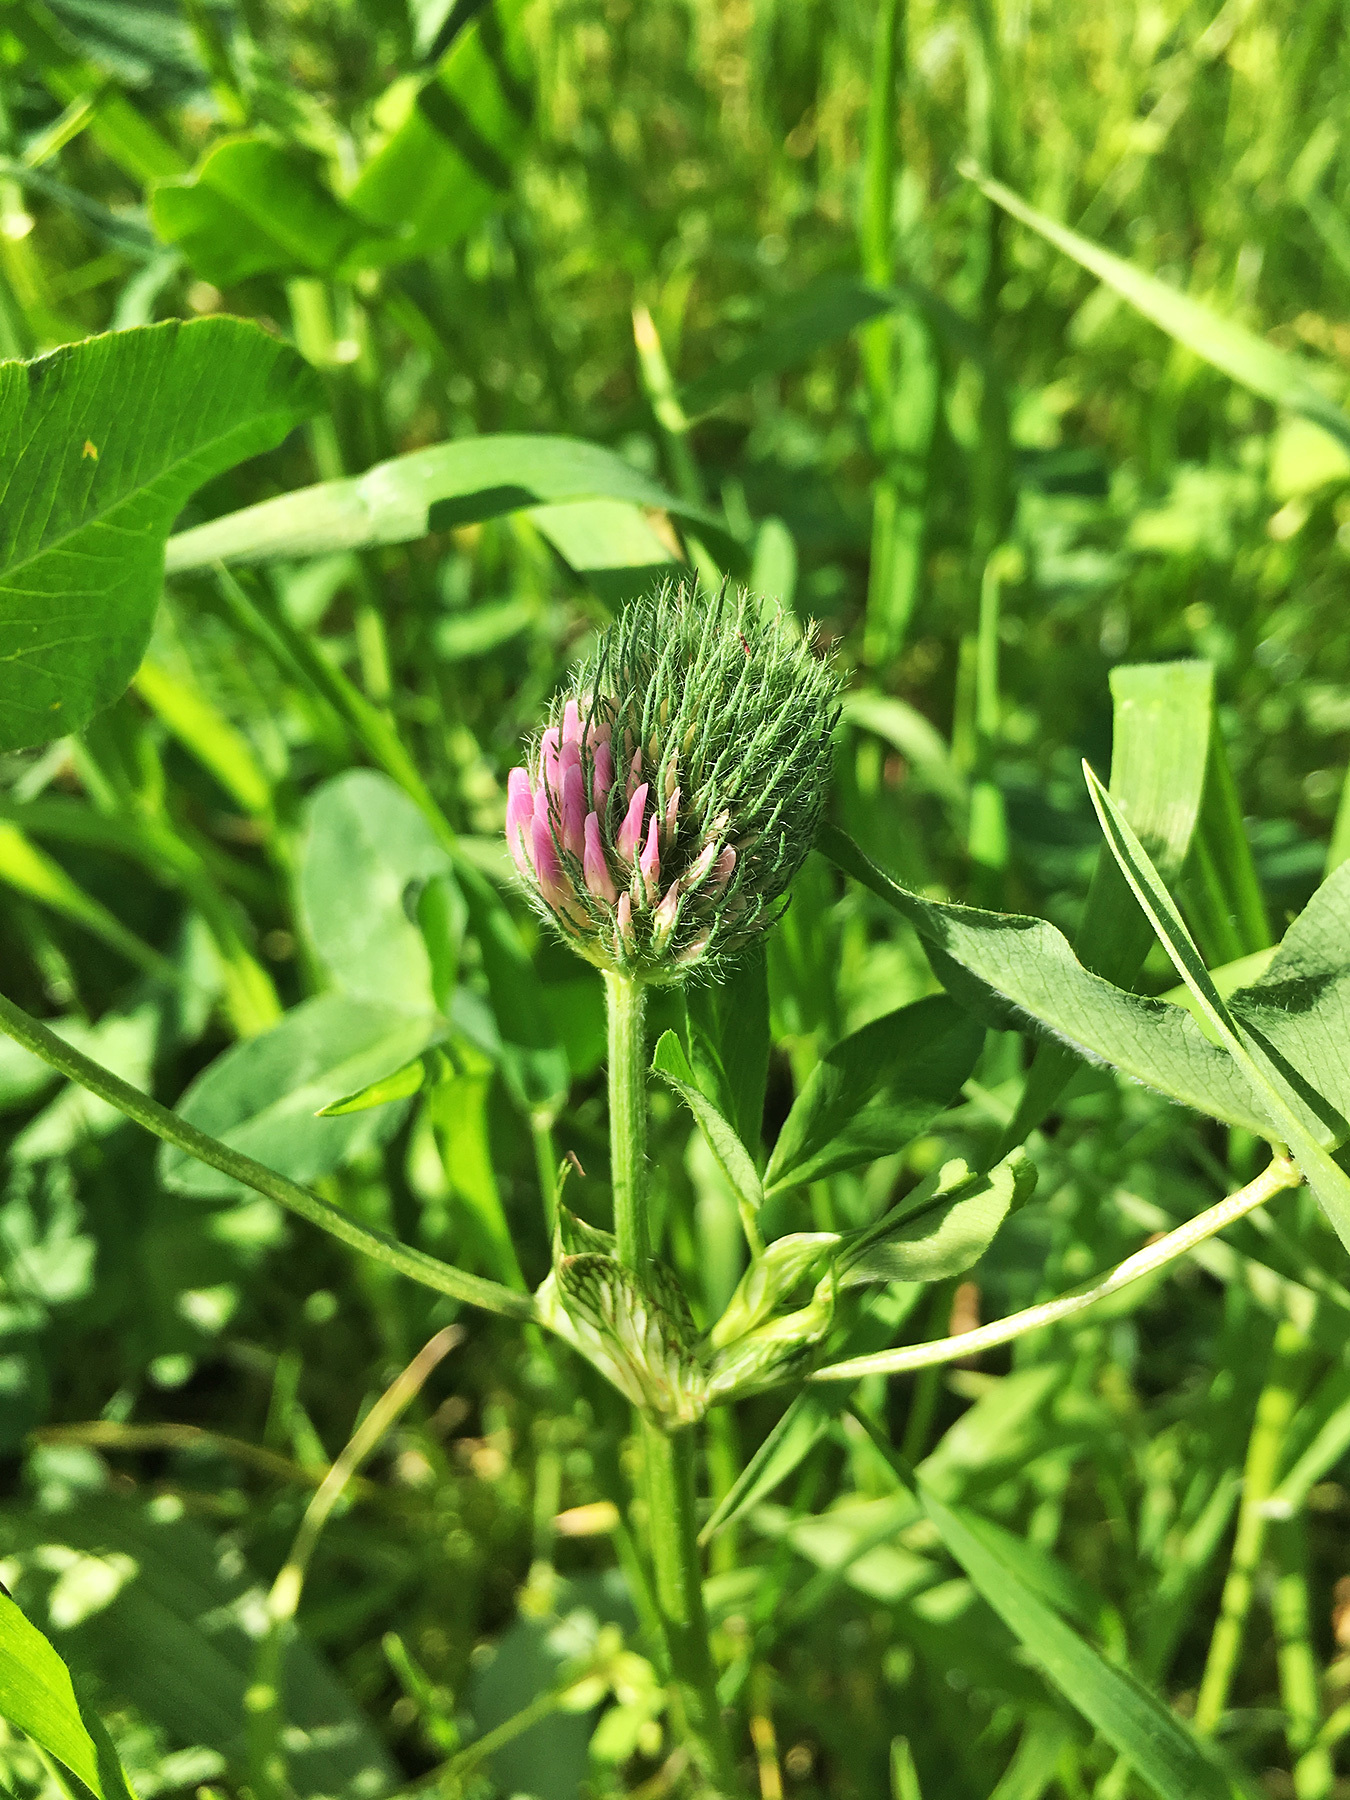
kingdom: Plantae
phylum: Tracheophyta
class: Magnoliopsida
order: Fabales
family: Fabaceae
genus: Trifolium
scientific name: Trifolium pratense
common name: Red clover
